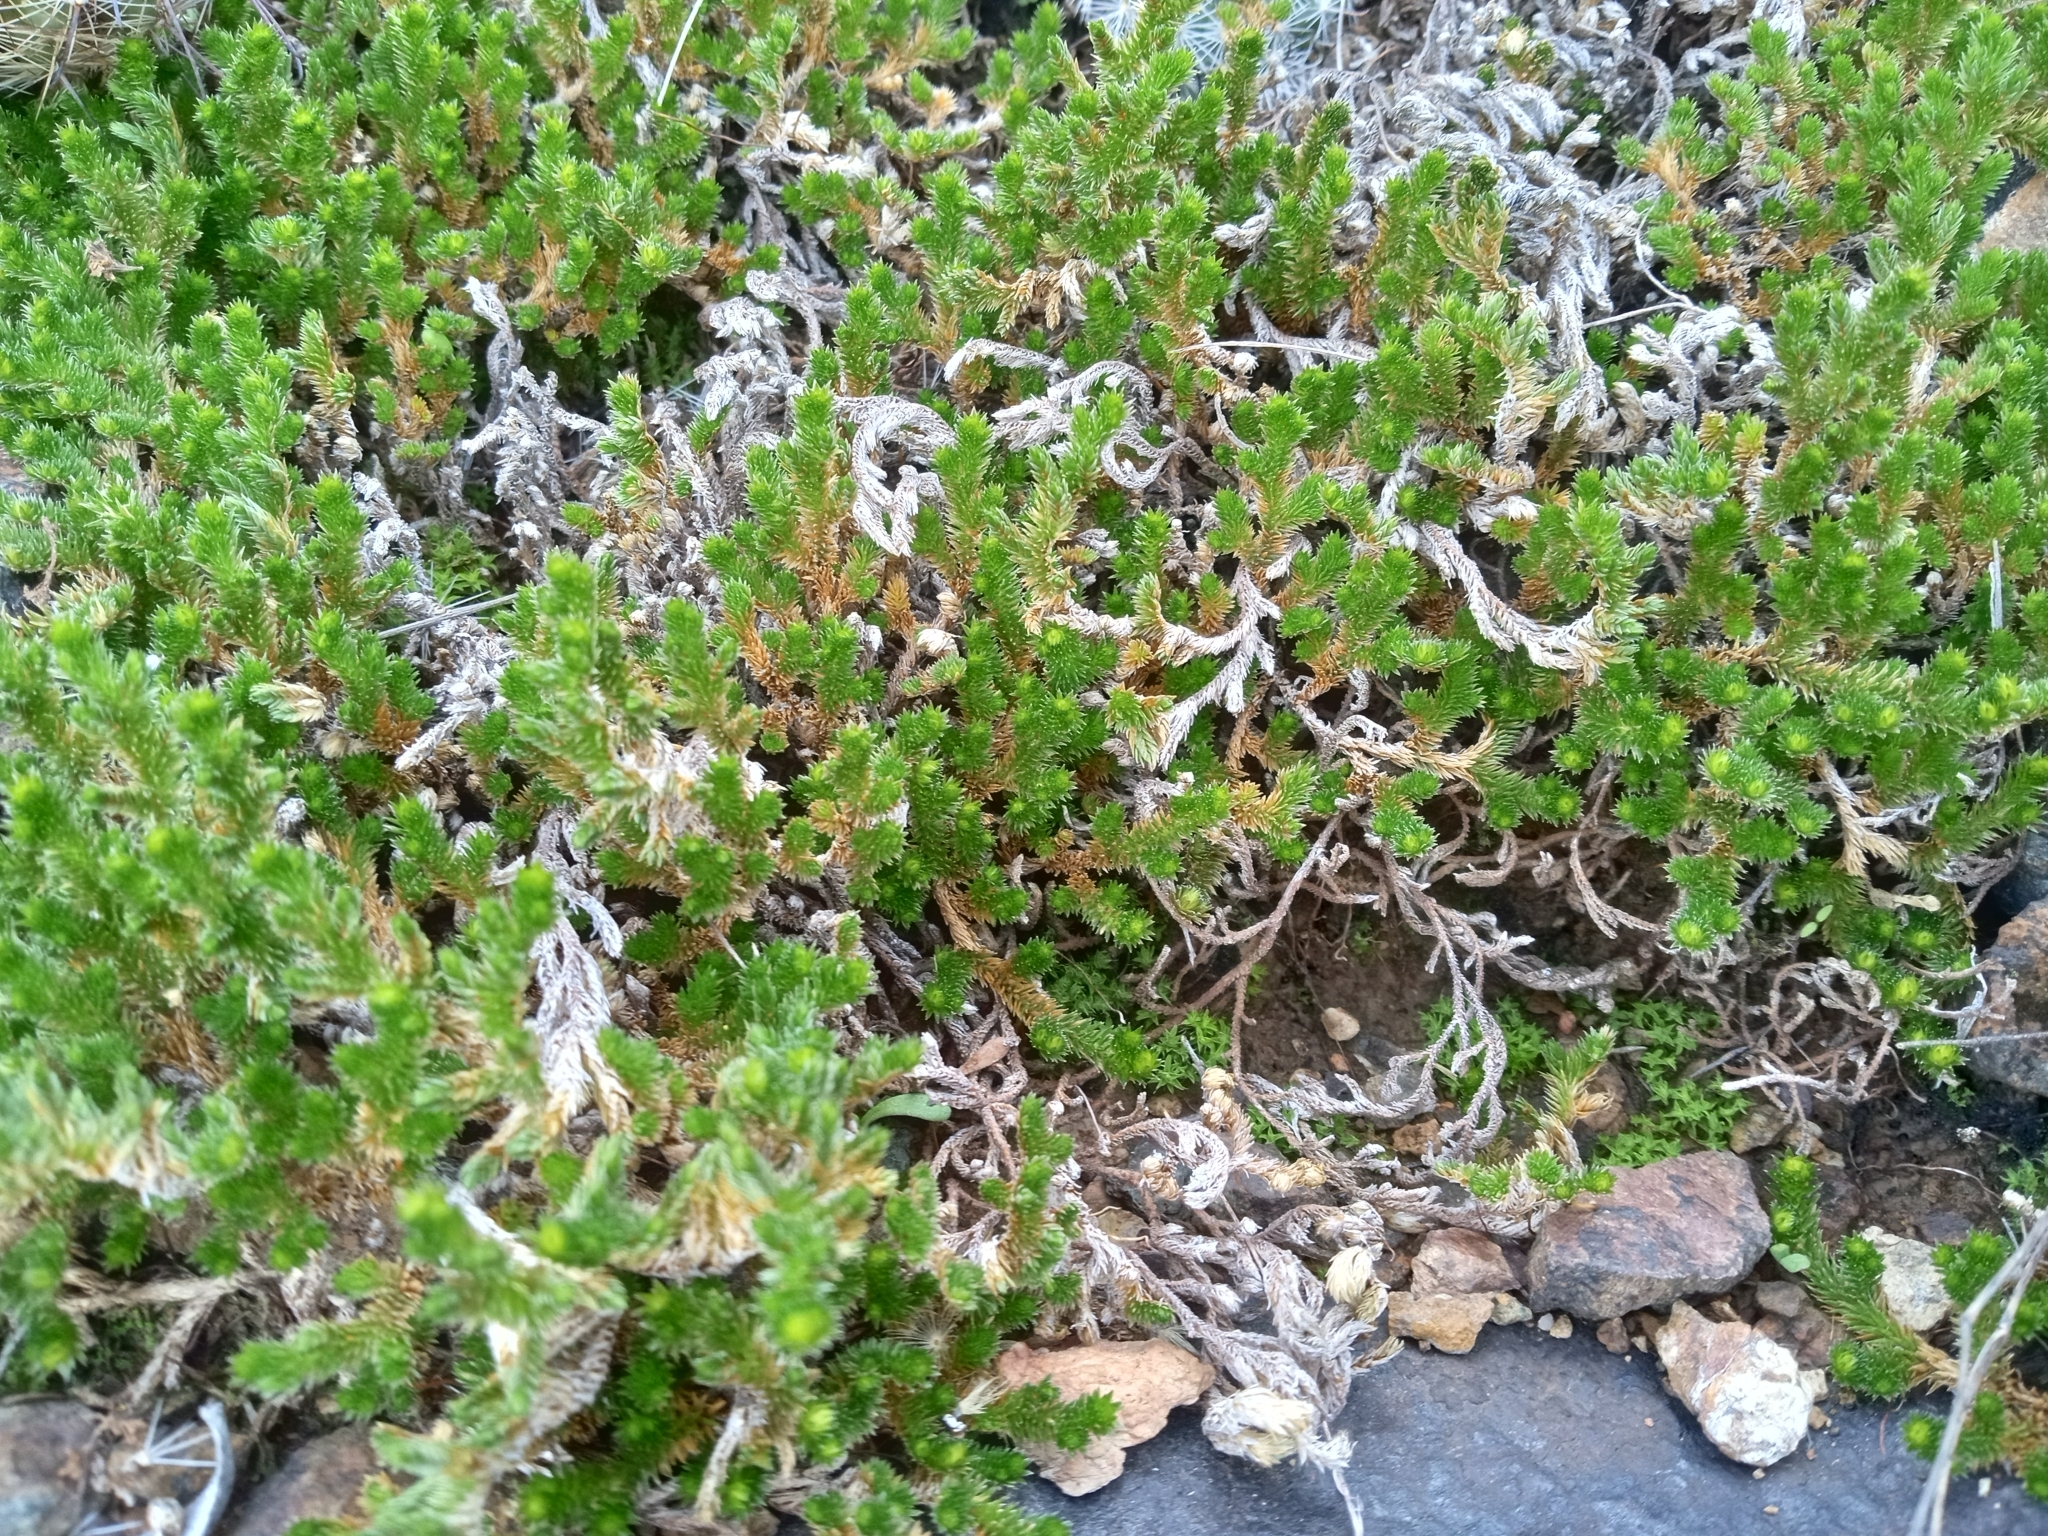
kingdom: Plantae
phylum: Tracheophyta
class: Lycopodiopsida
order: Selaginellales
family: Selaginellaceae
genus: Selaginella
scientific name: Selaginella arizonica
